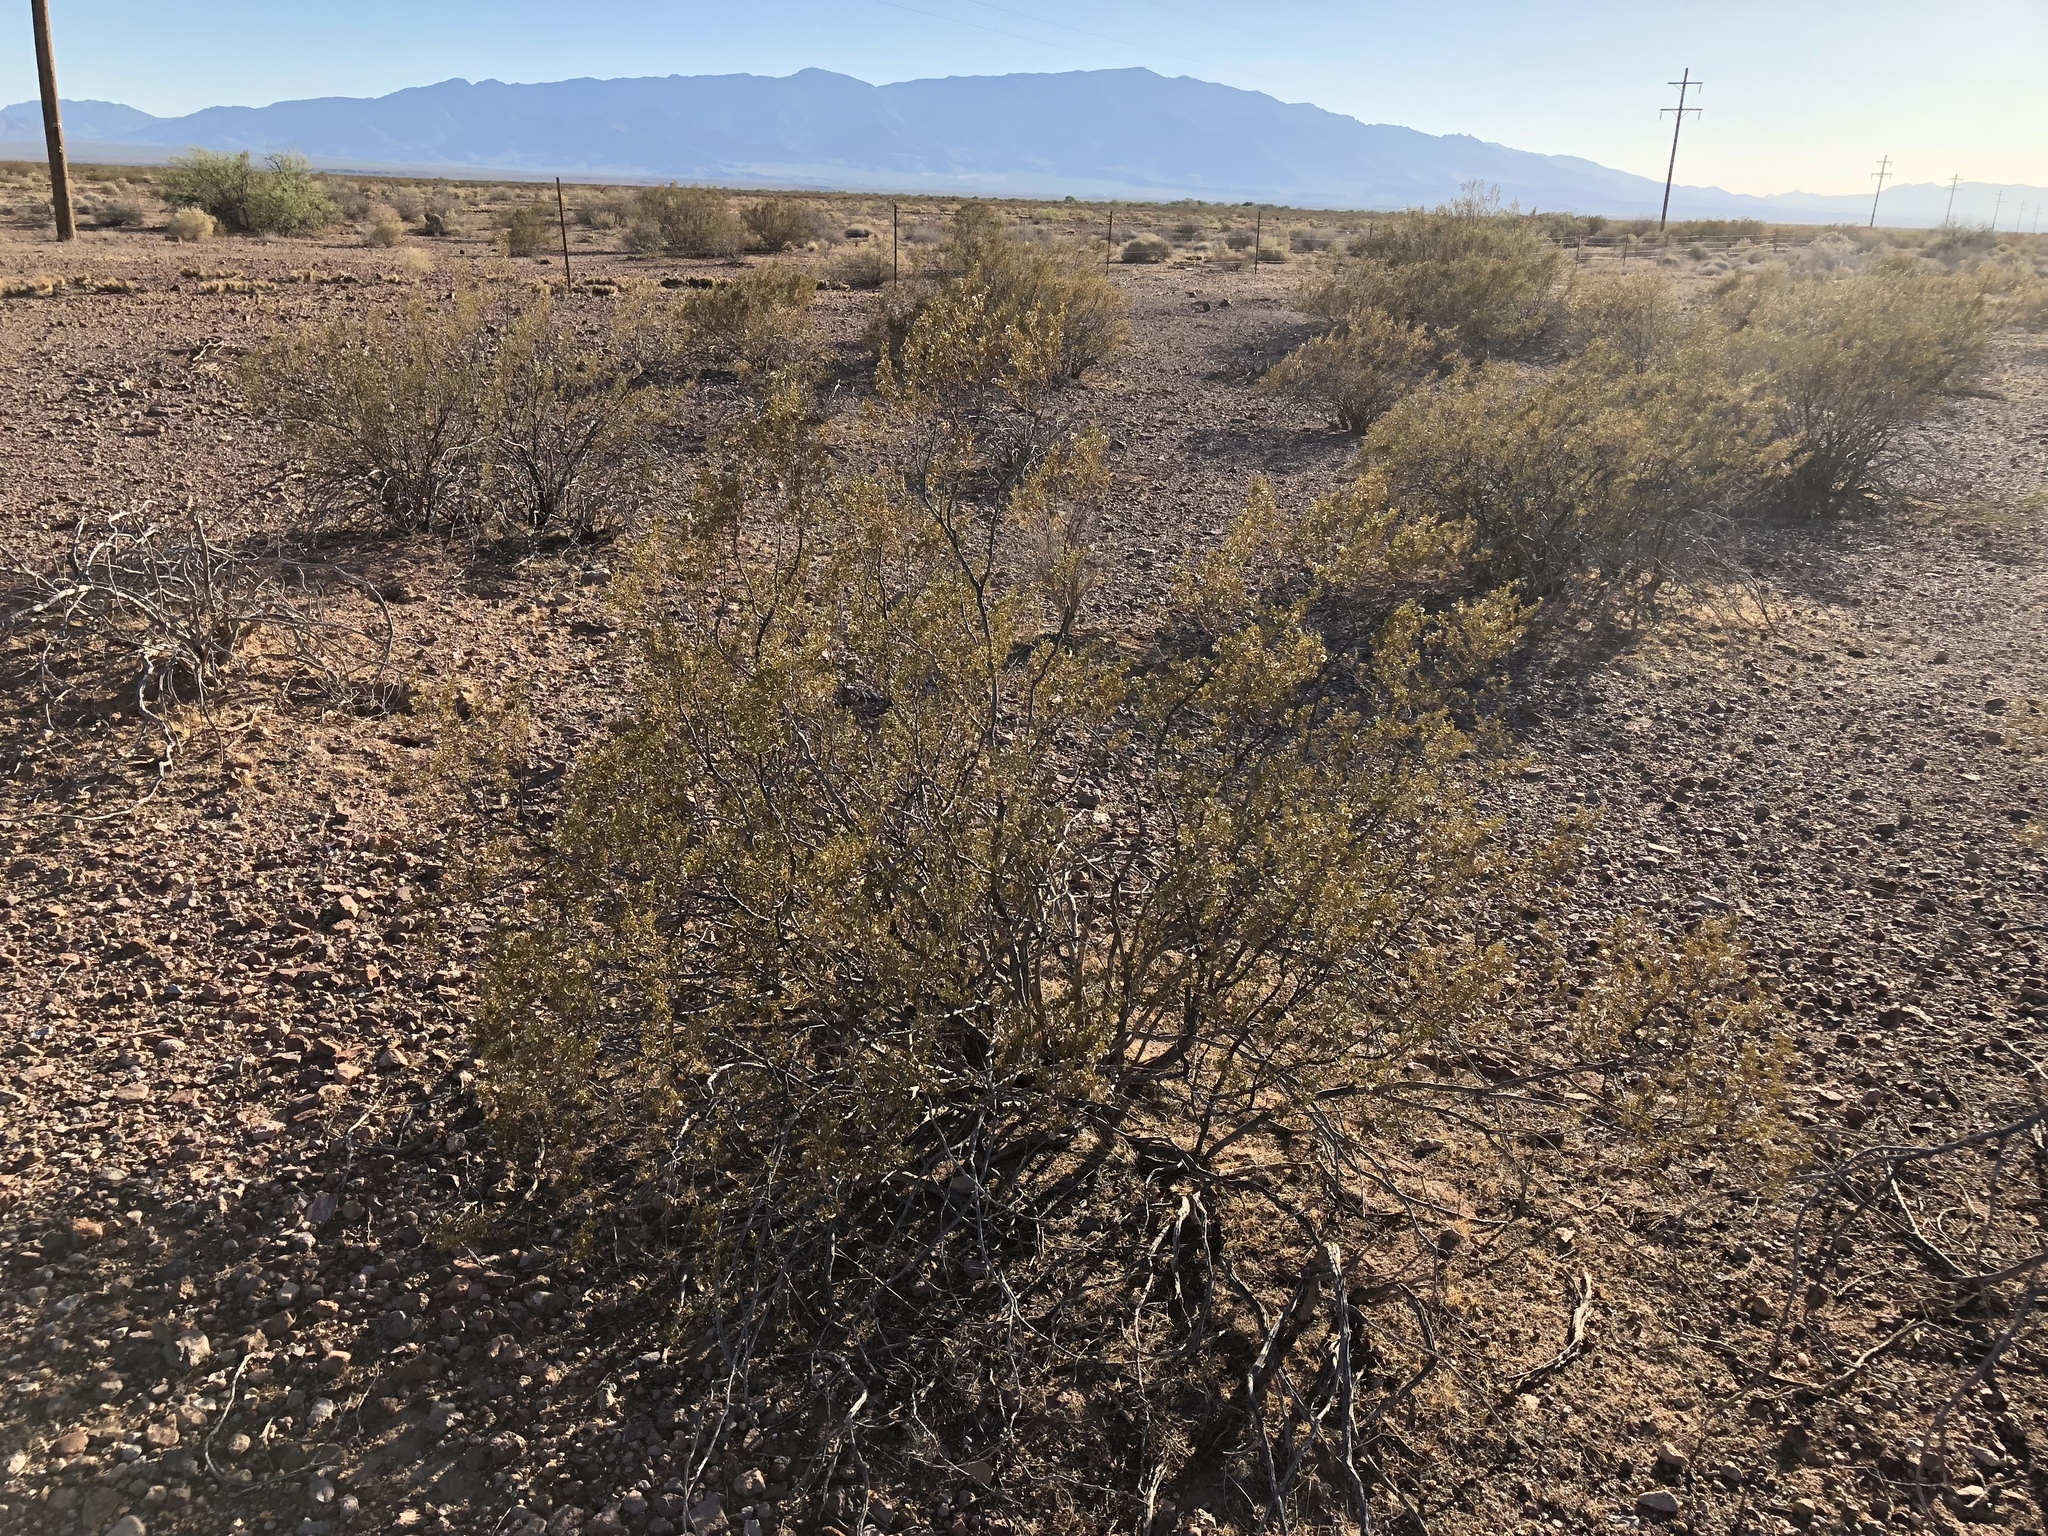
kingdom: Plantae
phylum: Tracheophyta
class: Magnoliopsida
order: Zygophyllales
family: Zygophyllaceae
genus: Larrea
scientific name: Larrea tridentata
